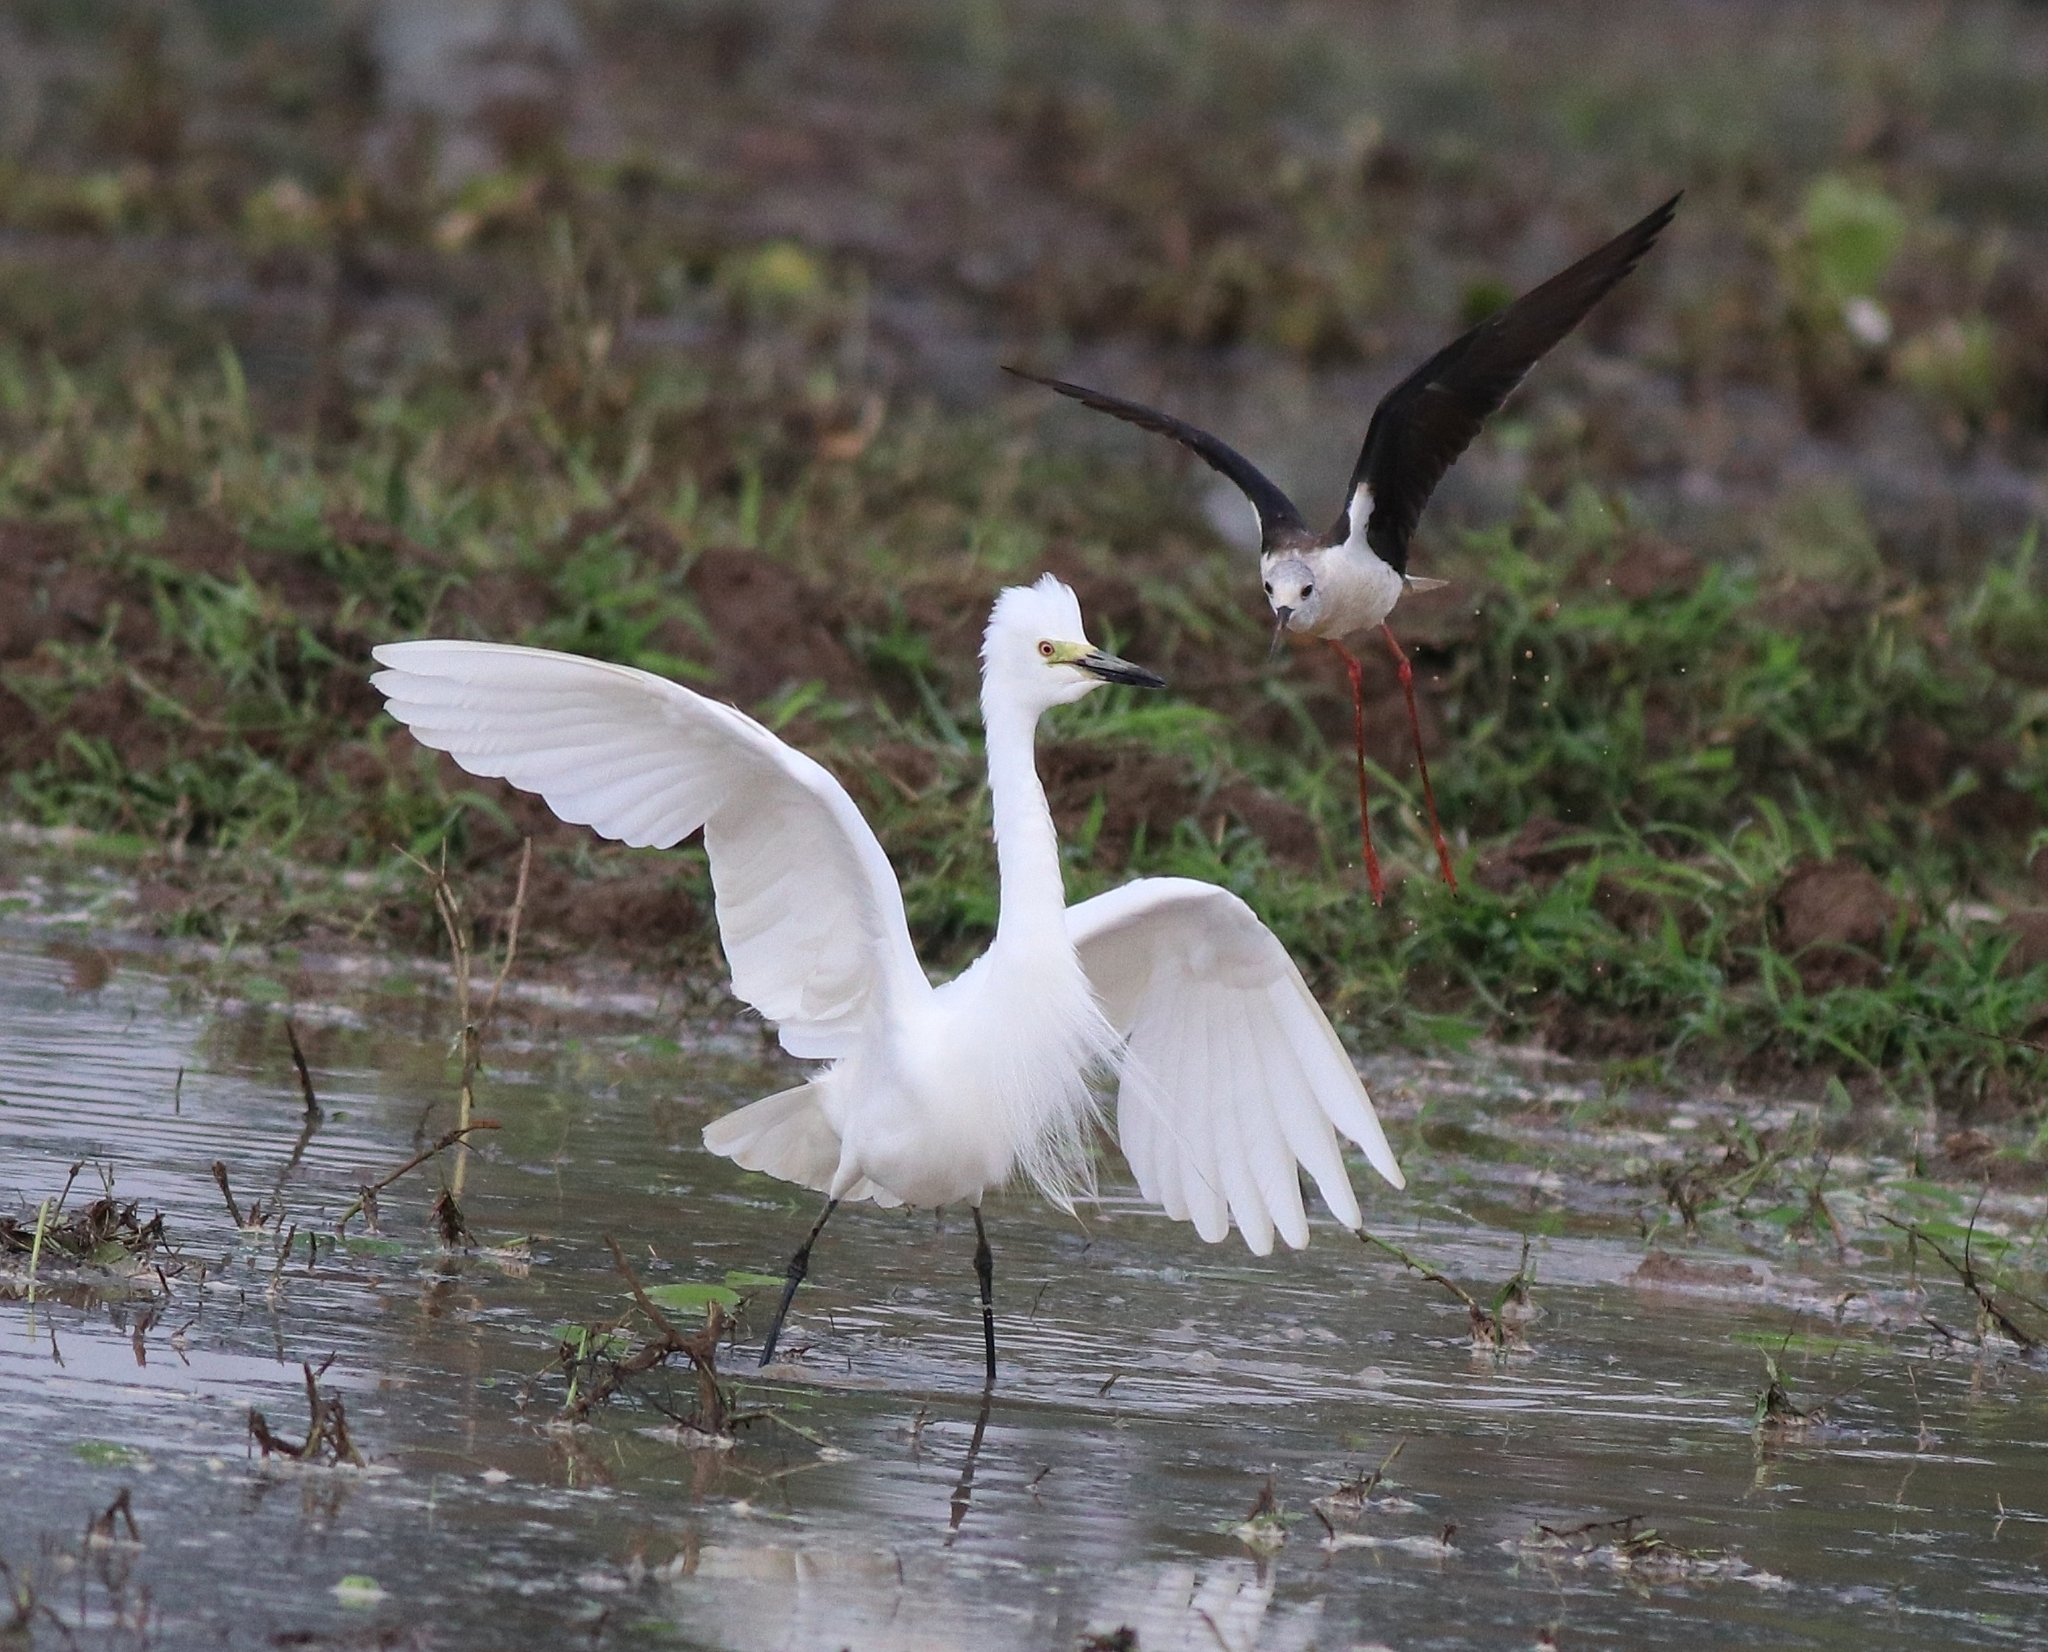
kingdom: Animalia
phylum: Chordata
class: Aves
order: Pelecaniformes
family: Ardeidae
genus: Egretta
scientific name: Egretta intermedia
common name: Intermediate egret
